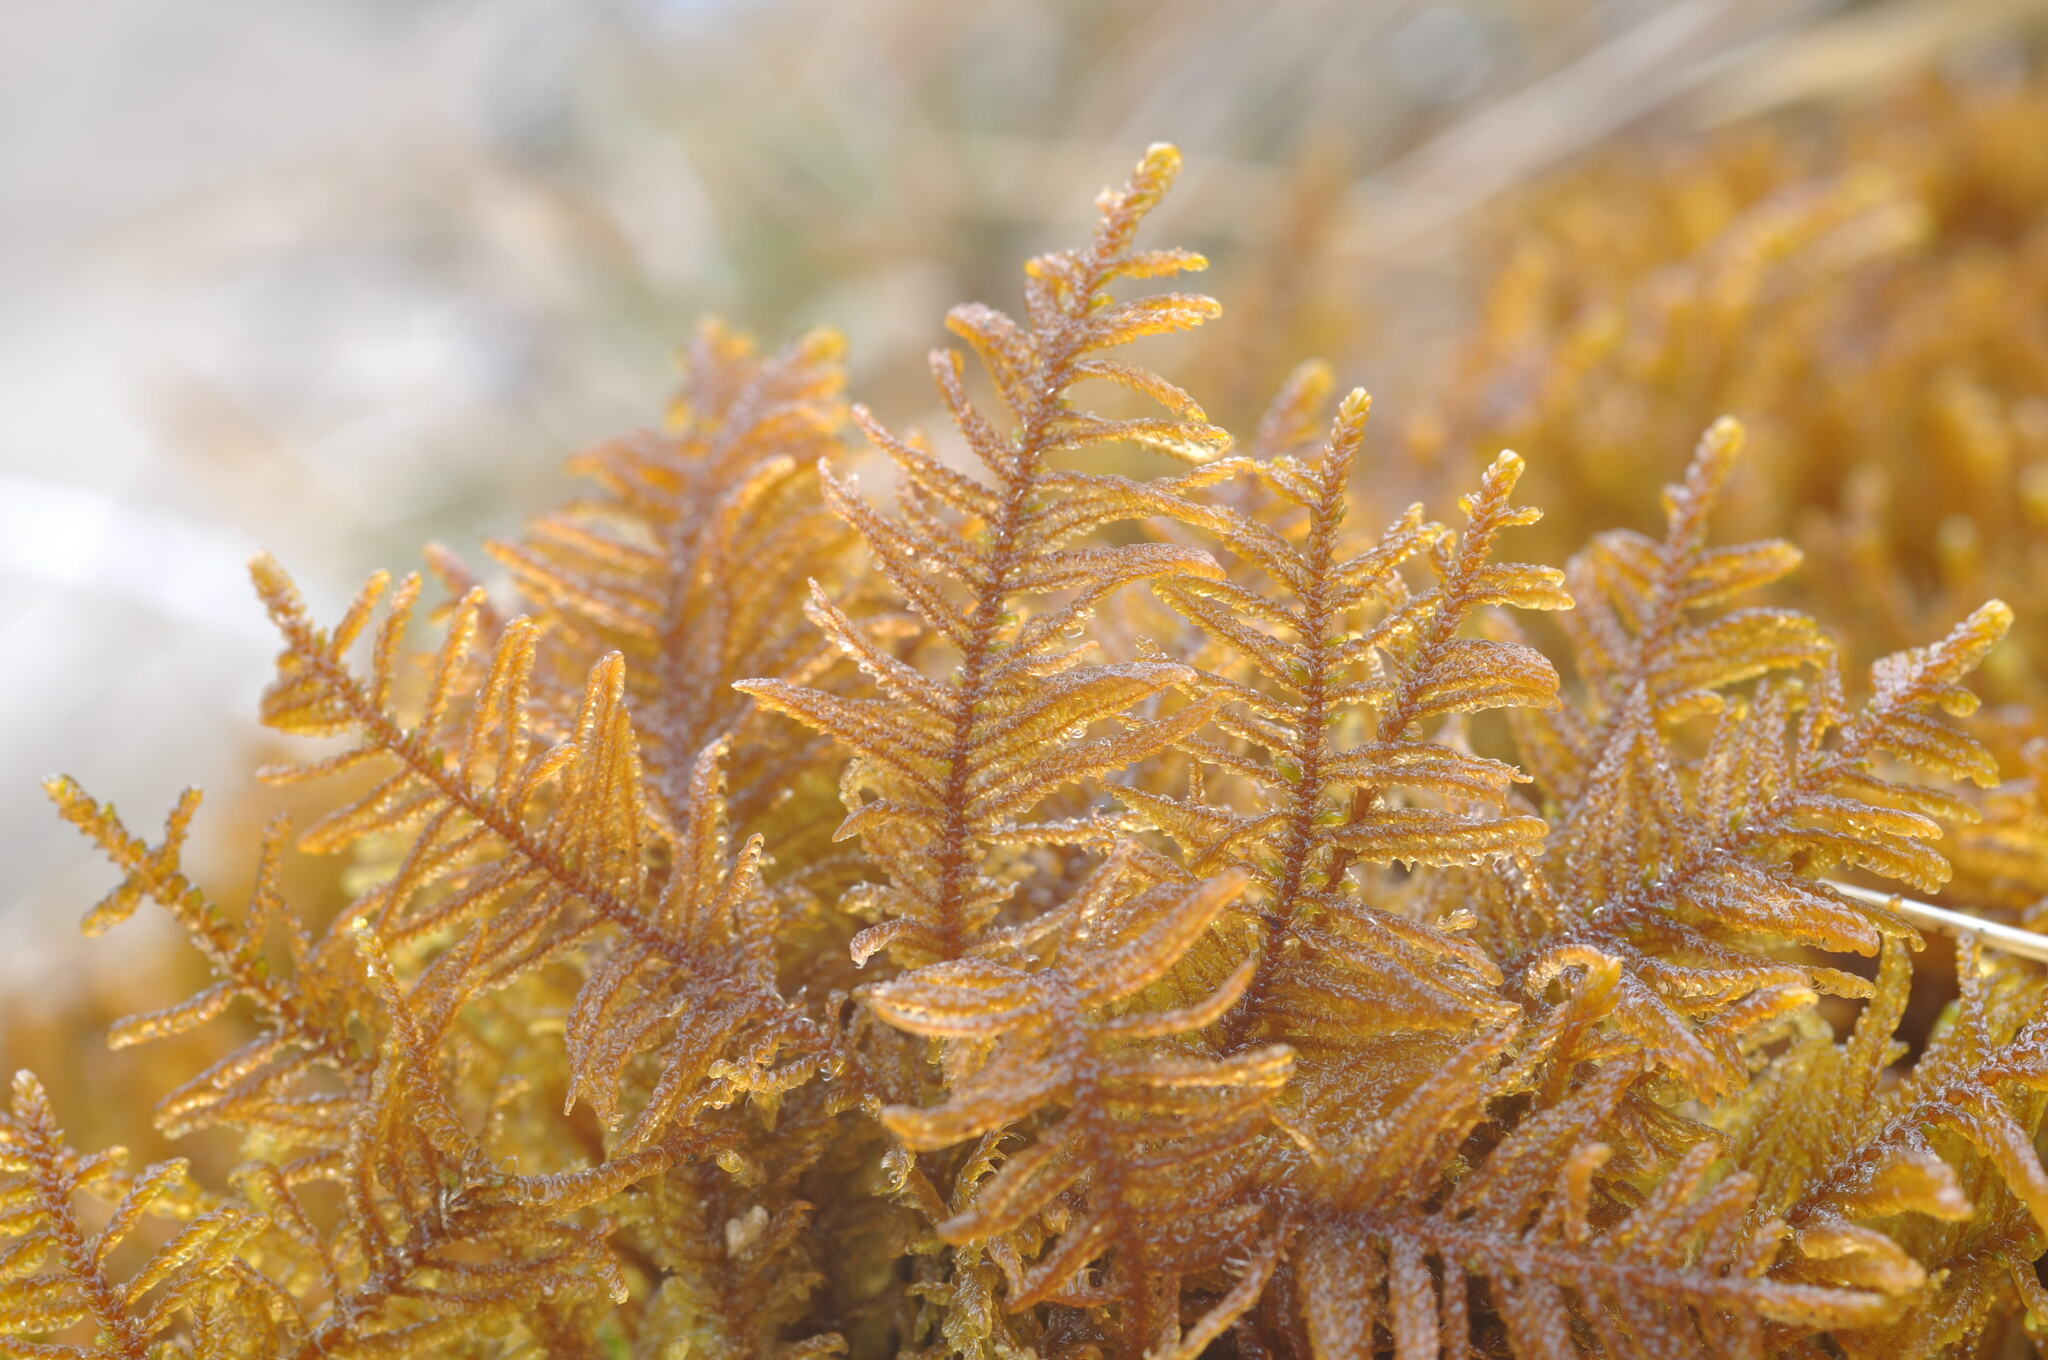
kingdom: Plantae
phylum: Bryophyta
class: Bryopsida
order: Hypnales
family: Amblystegiaceae
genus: Palustriella
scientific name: Palustriella commutata
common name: Curled hook-moss
